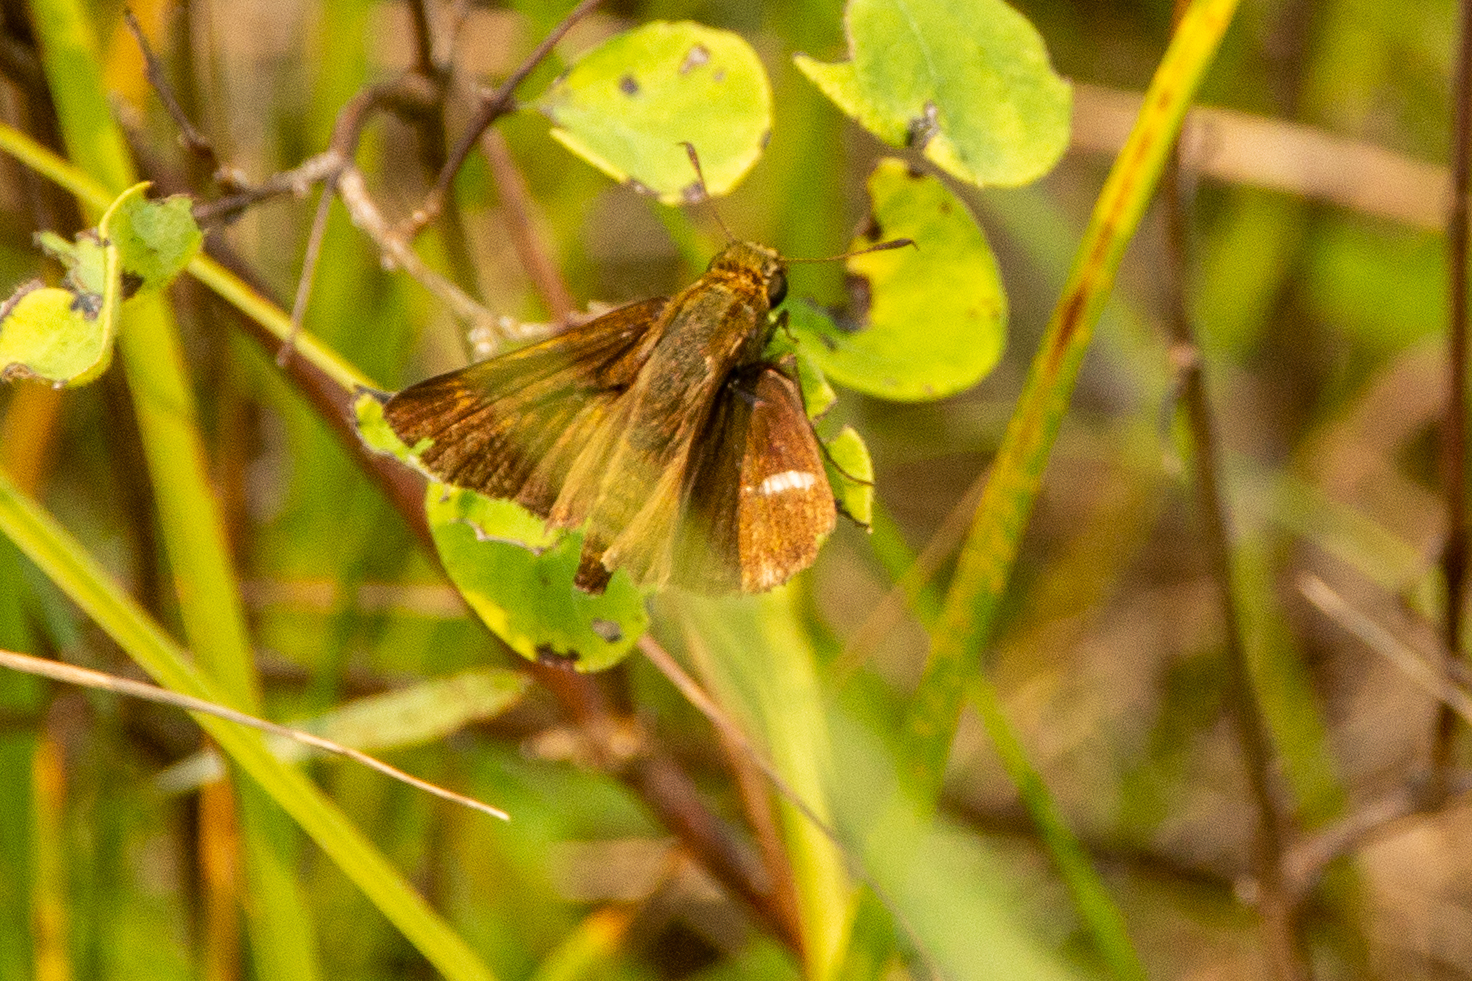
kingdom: Animalia
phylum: Arthropoda
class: Insecta
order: Lepidoptera
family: Hesperiidae
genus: Euphyes
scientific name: Euphyes vestris
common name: Dun skipper
